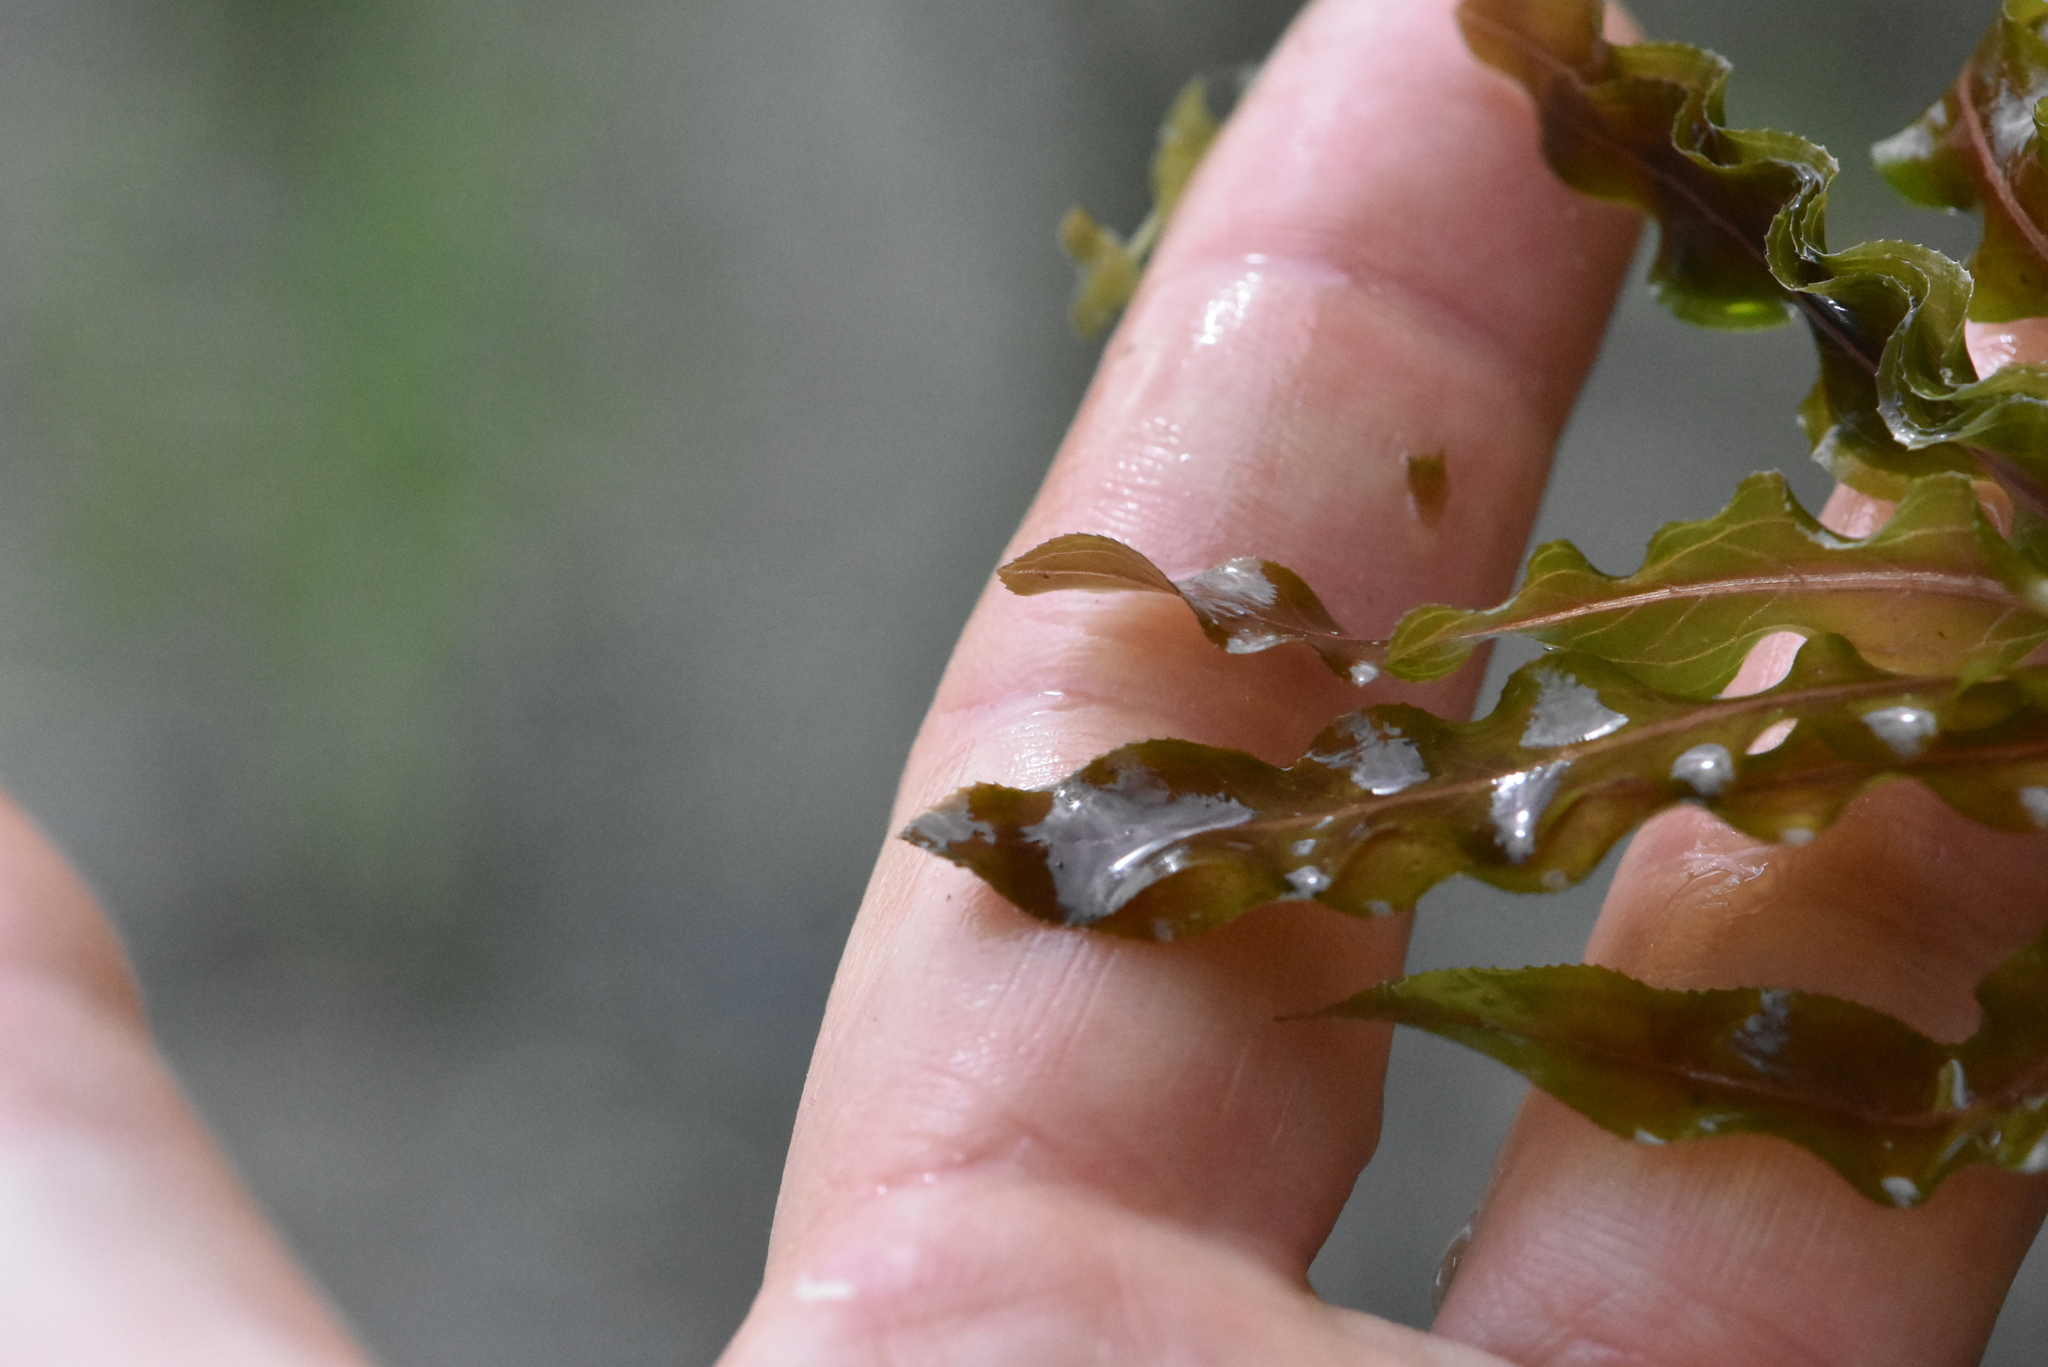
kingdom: Plantae
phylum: Tracheophyta
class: Liliopsida
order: Alismatales
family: Potamogetonaceae
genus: Potamogeton
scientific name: Potamogeton crispus
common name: Curled pondweed
